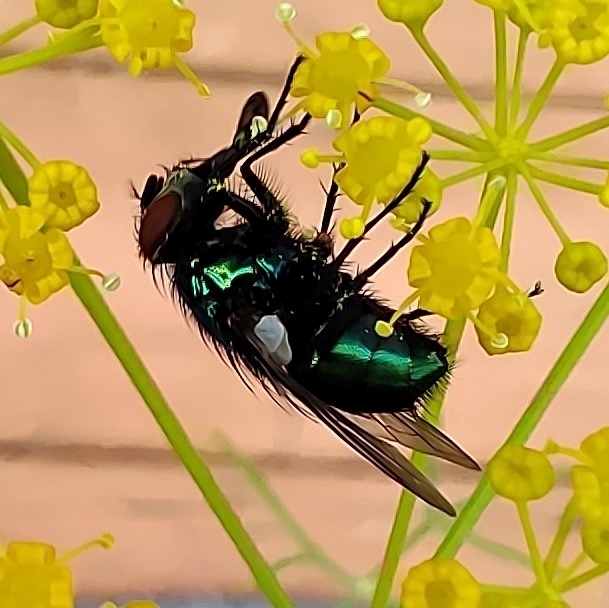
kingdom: Animalia
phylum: Arthropoda
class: Insecta
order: Diptera
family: Calliphoridae
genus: Lucilia
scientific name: Lucilia sericata
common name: Blow fly
